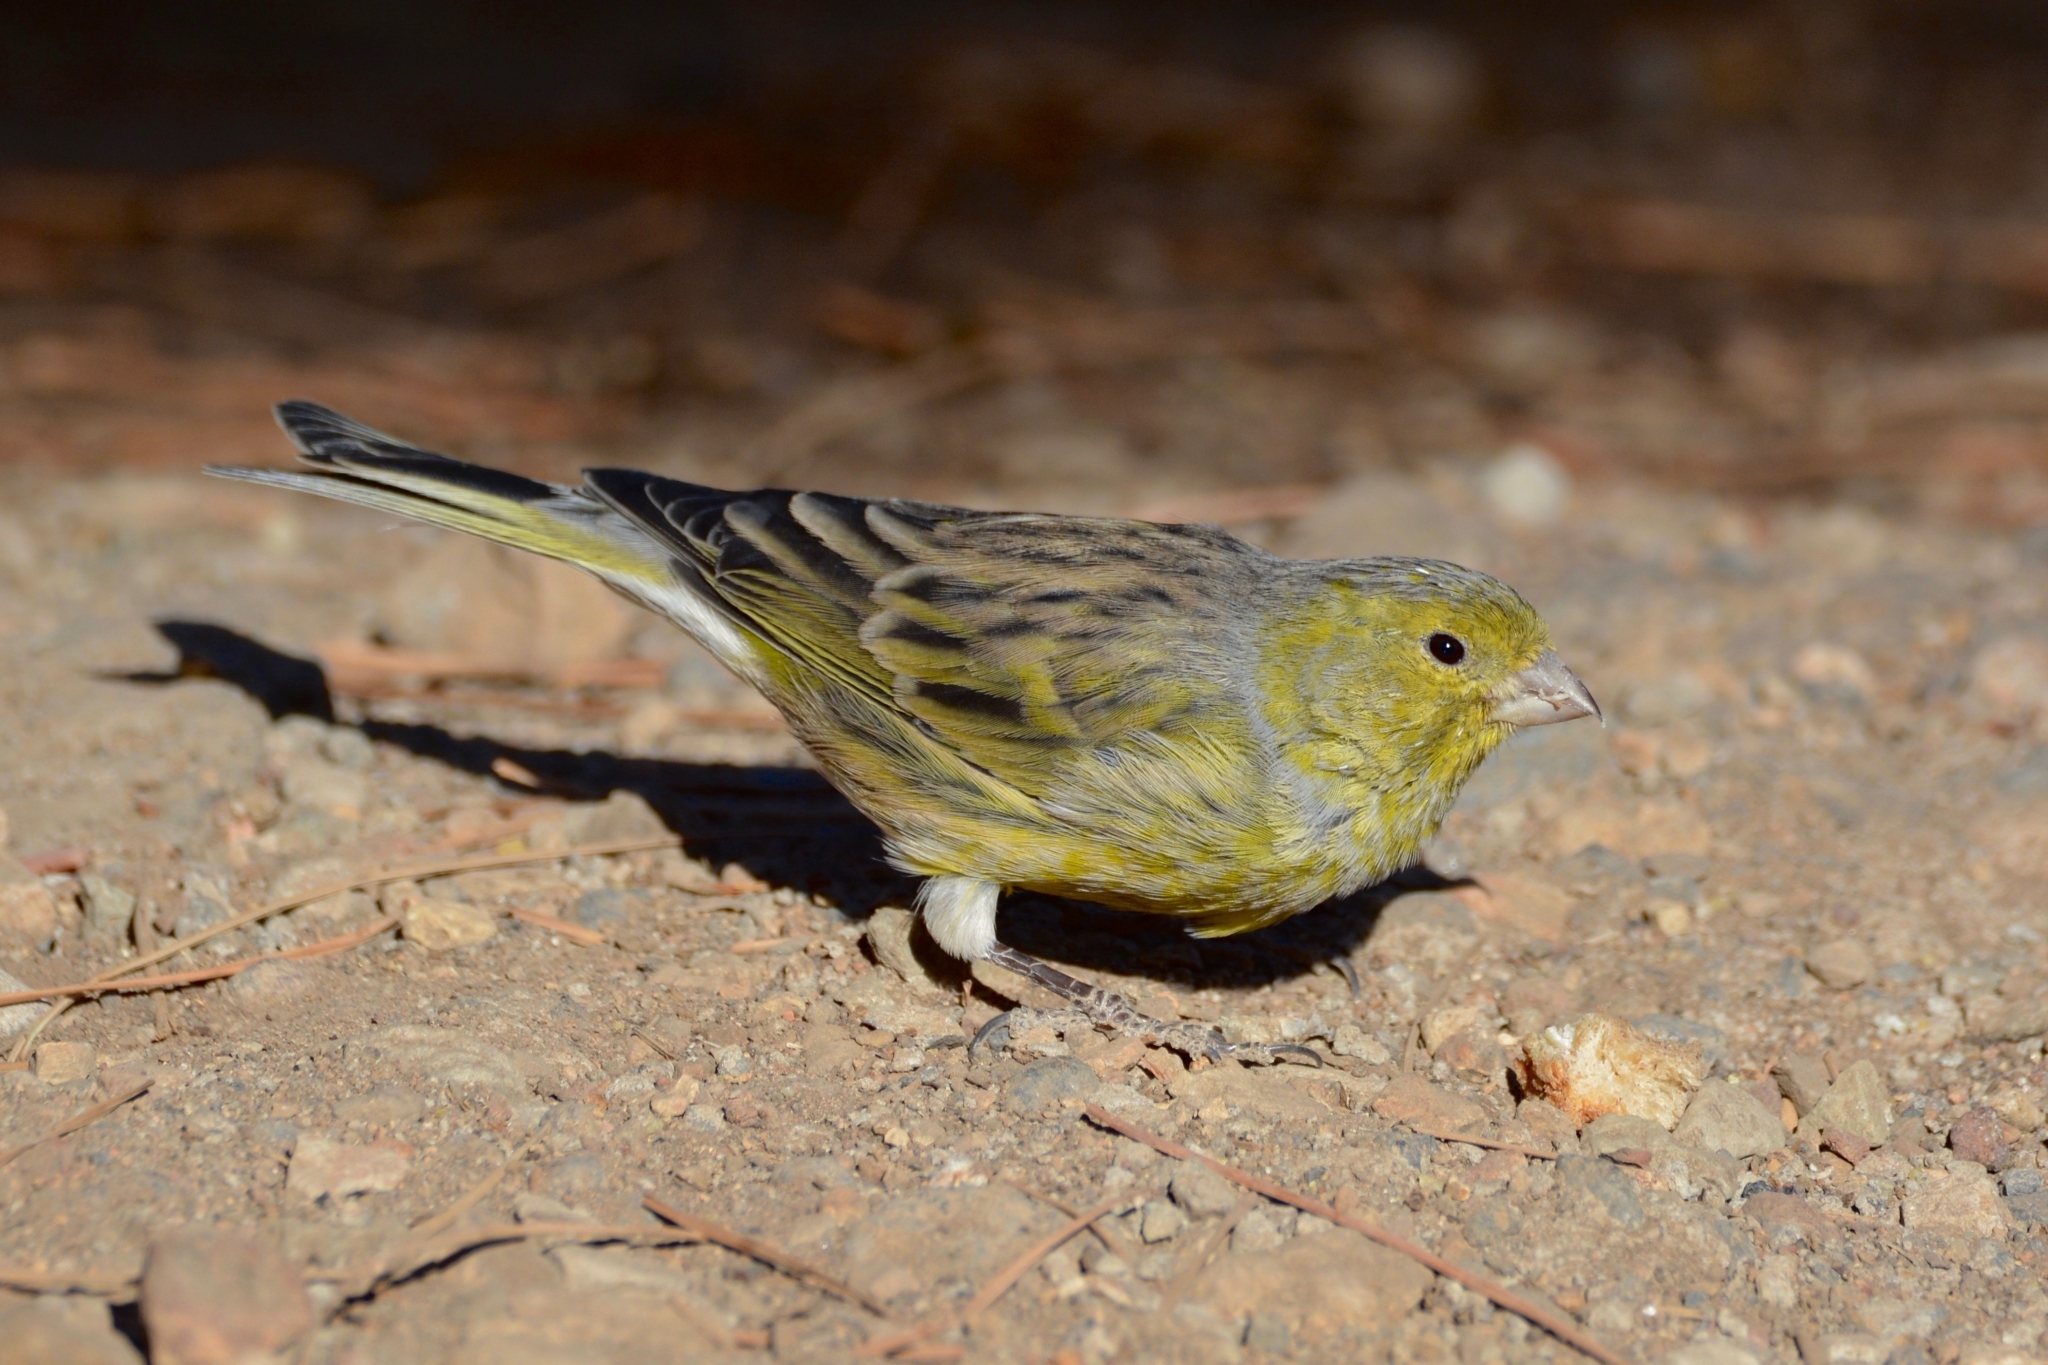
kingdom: Animalia
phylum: Chordata
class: Aves
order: Passeriformes
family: Fringillidae
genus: Serinus
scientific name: Serinus canaria
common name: Atlantic canary
